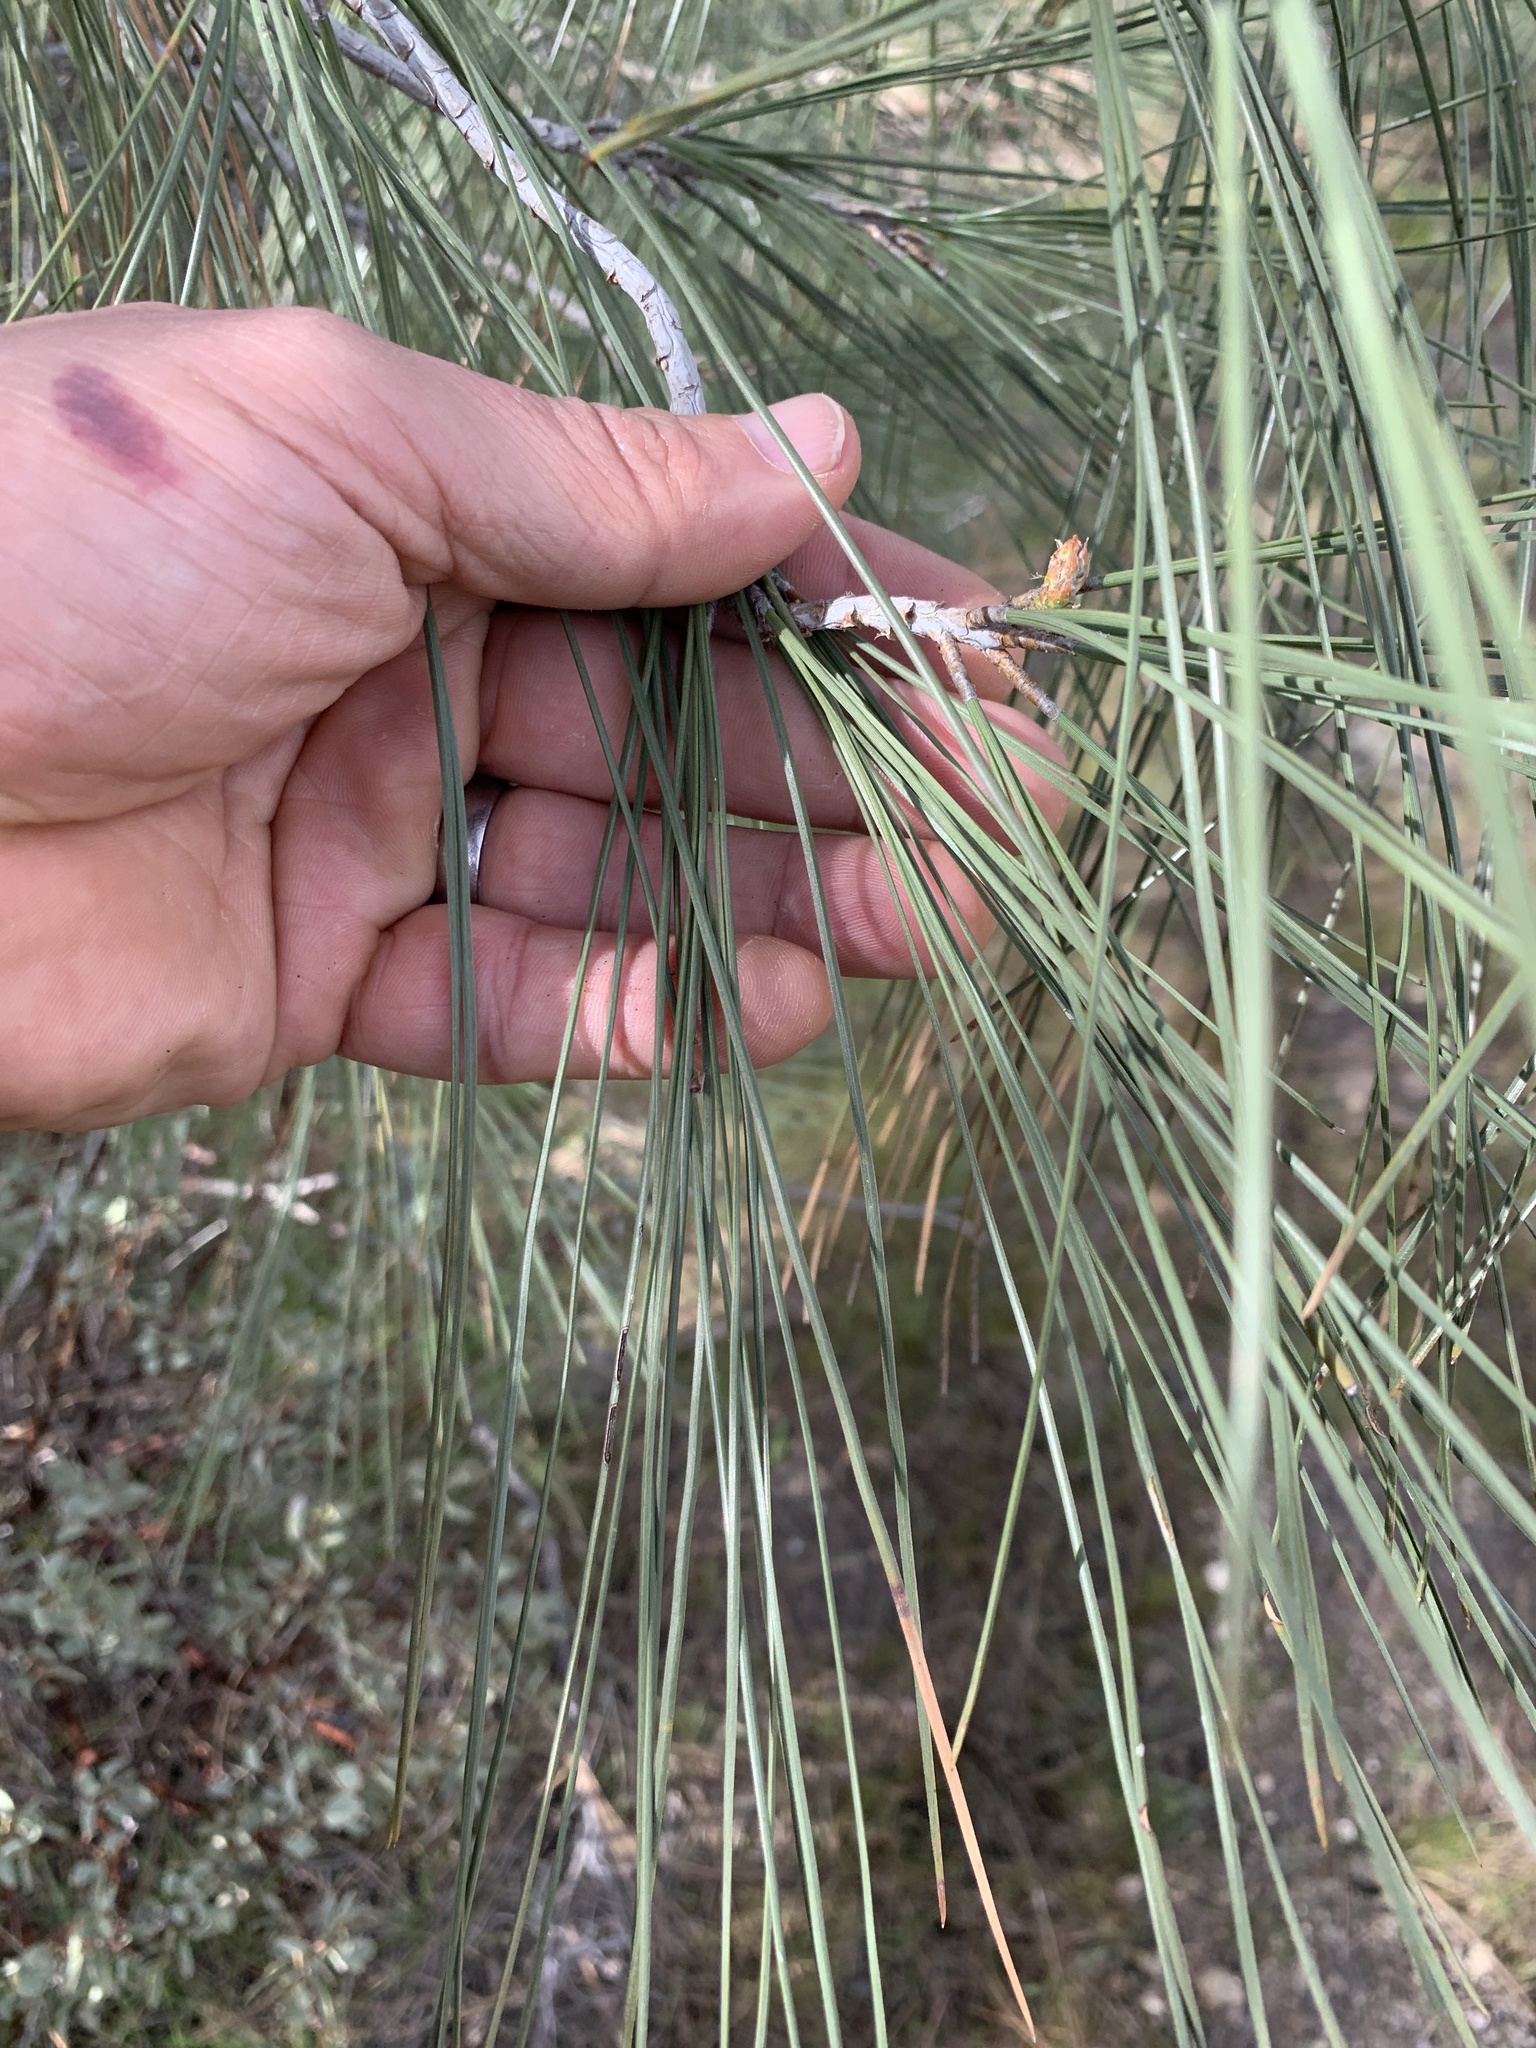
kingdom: Plantae
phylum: Tracheophyta
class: Pinopsida
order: Pinales
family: Pinaceae
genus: Pinus
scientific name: Pinus sabiniana
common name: Bull pine
